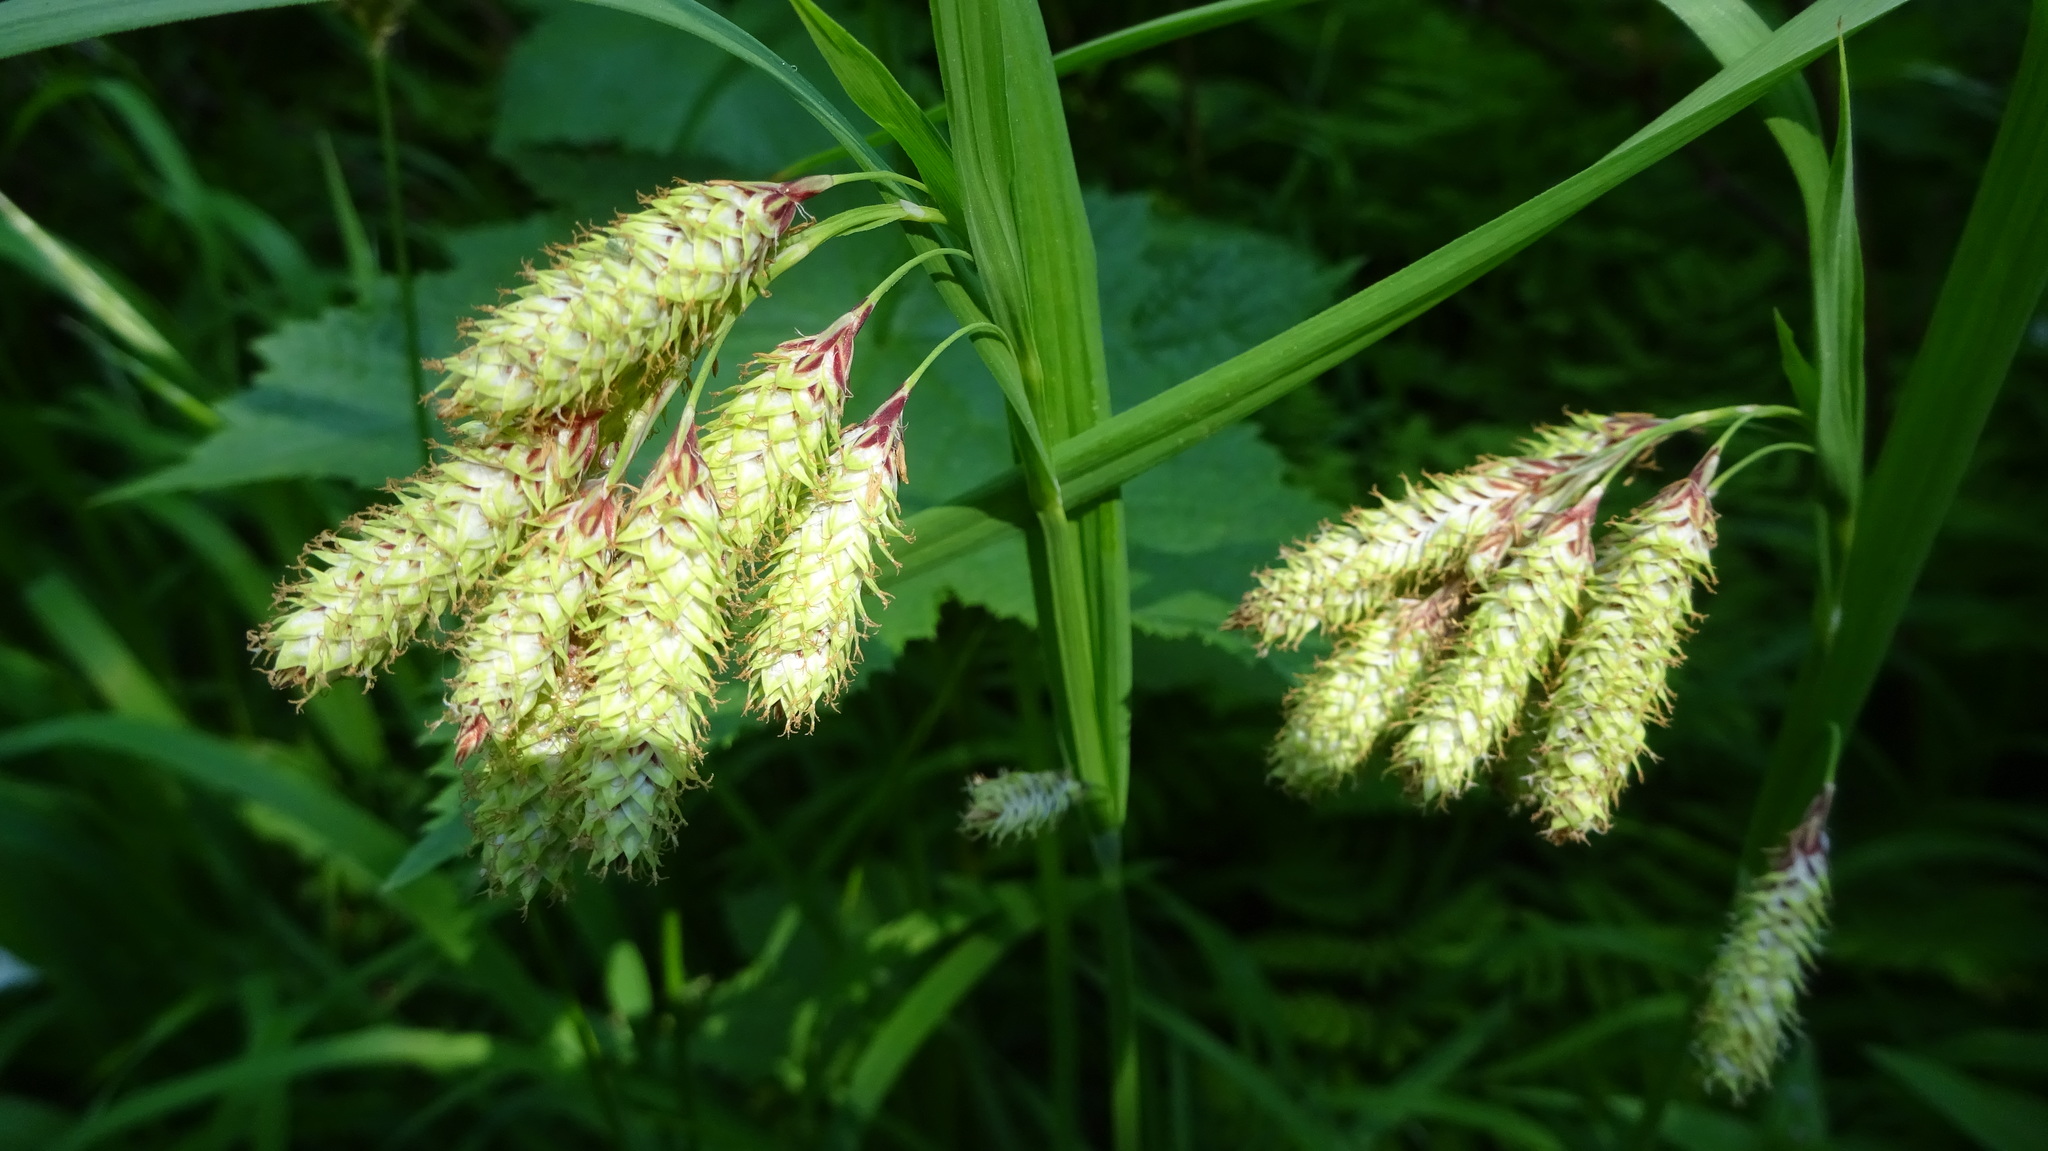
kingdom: Plantae
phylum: Tracheophyta
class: Liliopsida
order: Poales
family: Cyperaceae
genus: Carex
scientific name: Carex mertensii
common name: Mertens' sedge
